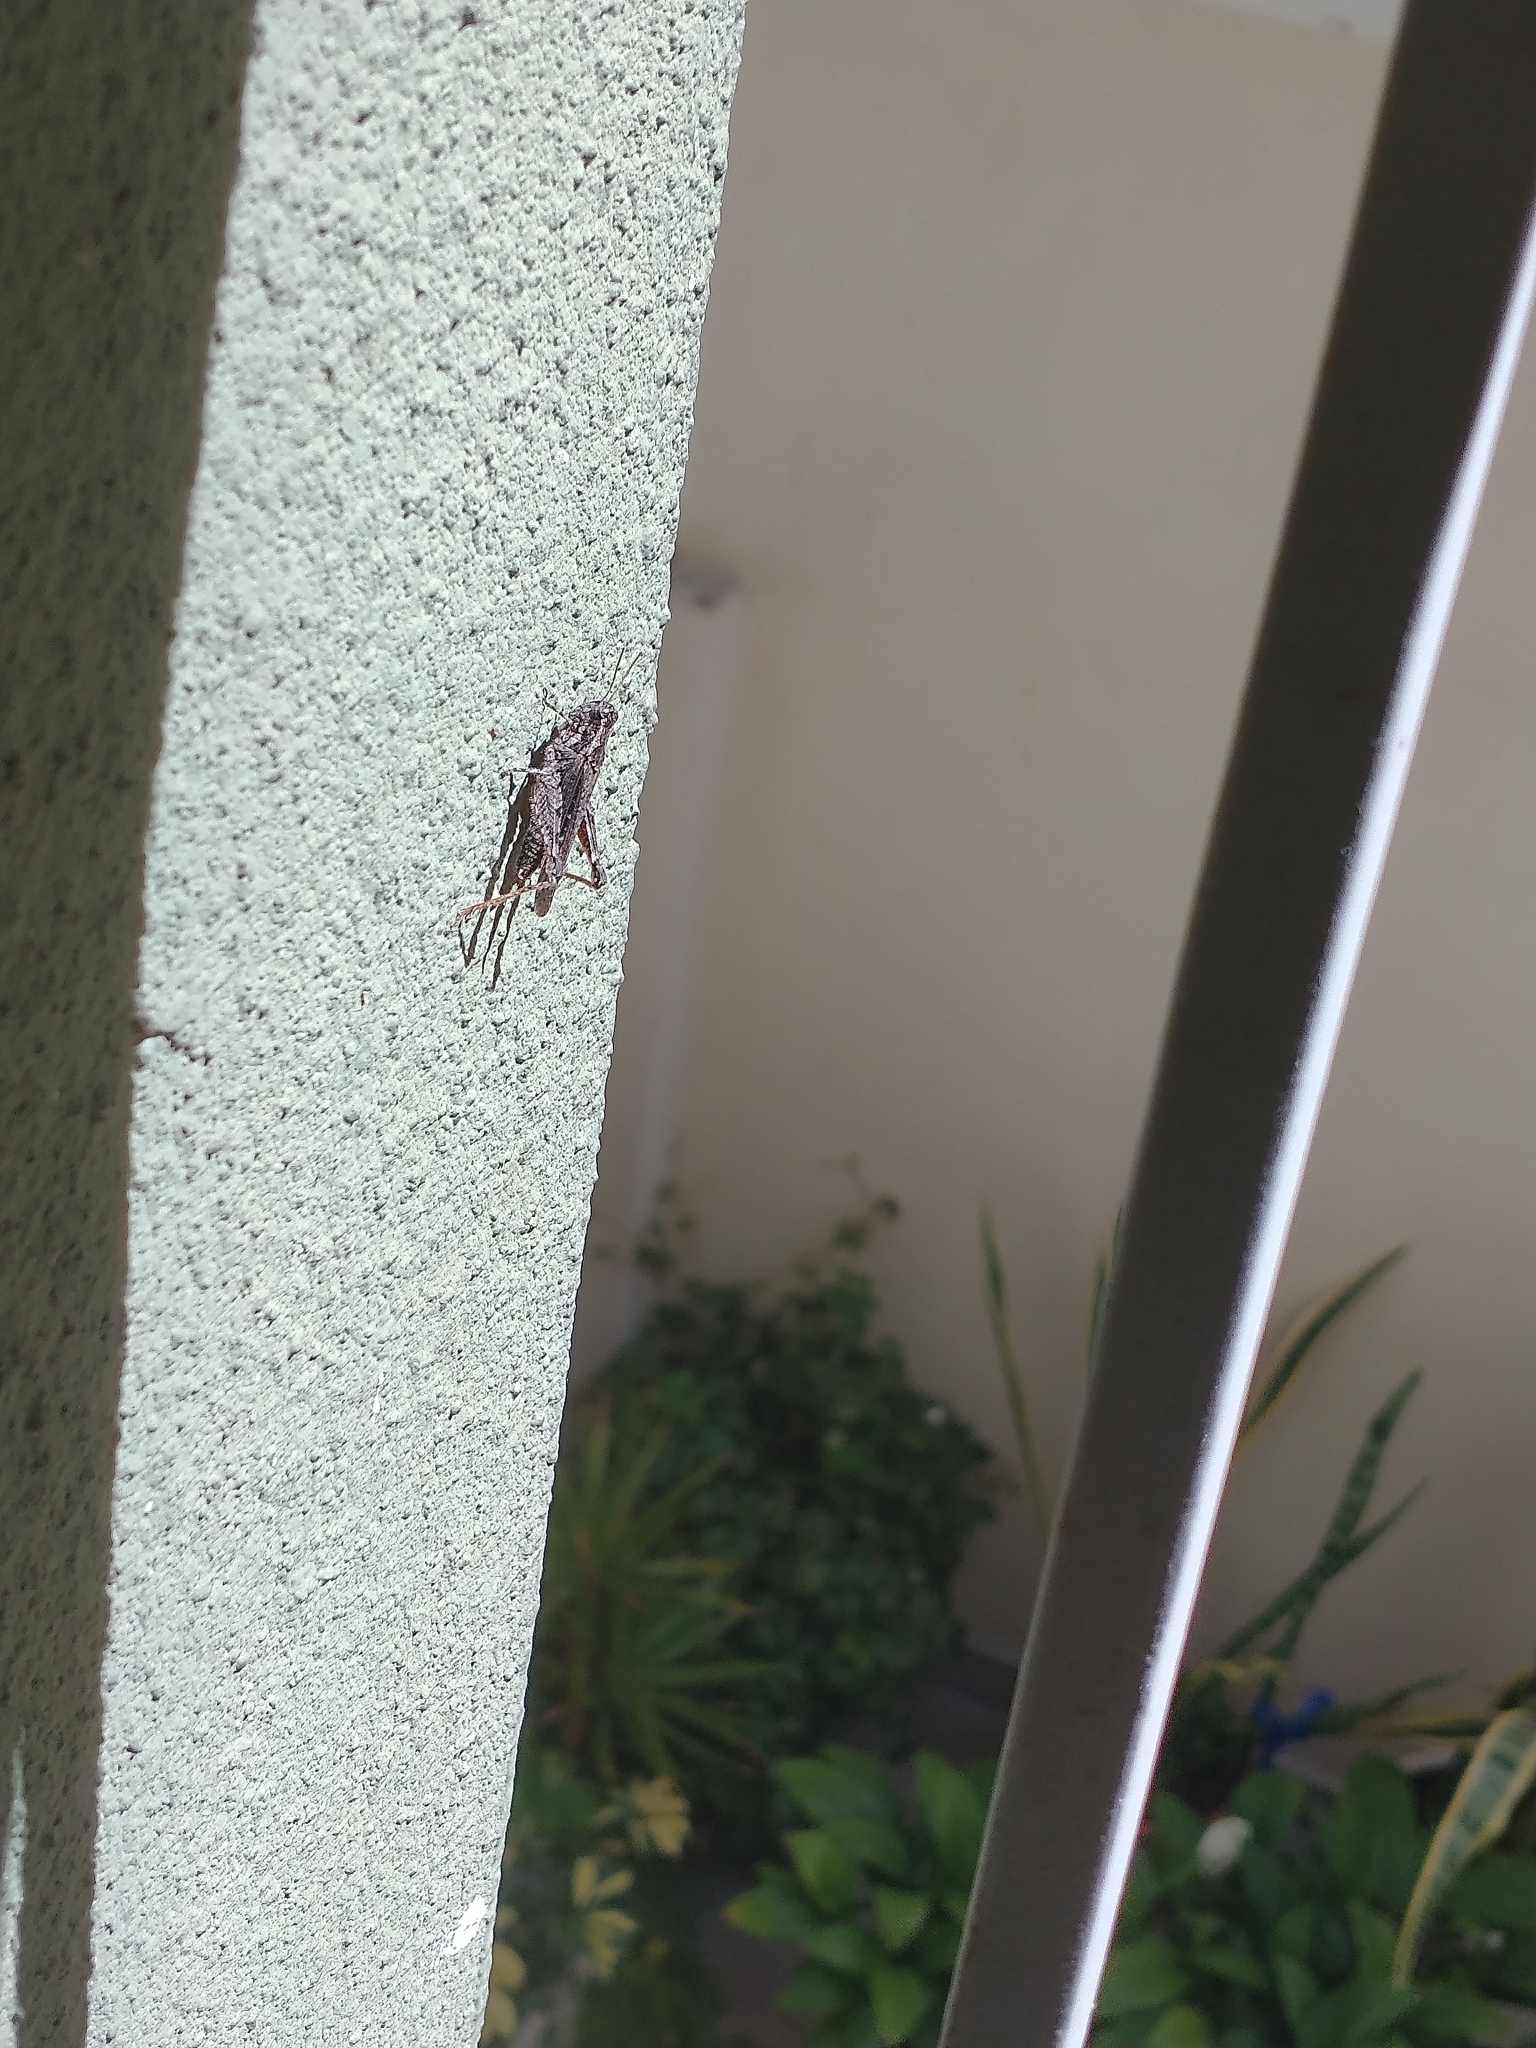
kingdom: Animalia
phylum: Arthropoda
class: Insecta
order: Orthoptera
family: Acrididae
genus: Ronderosia
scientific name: Ronderosia bergii
